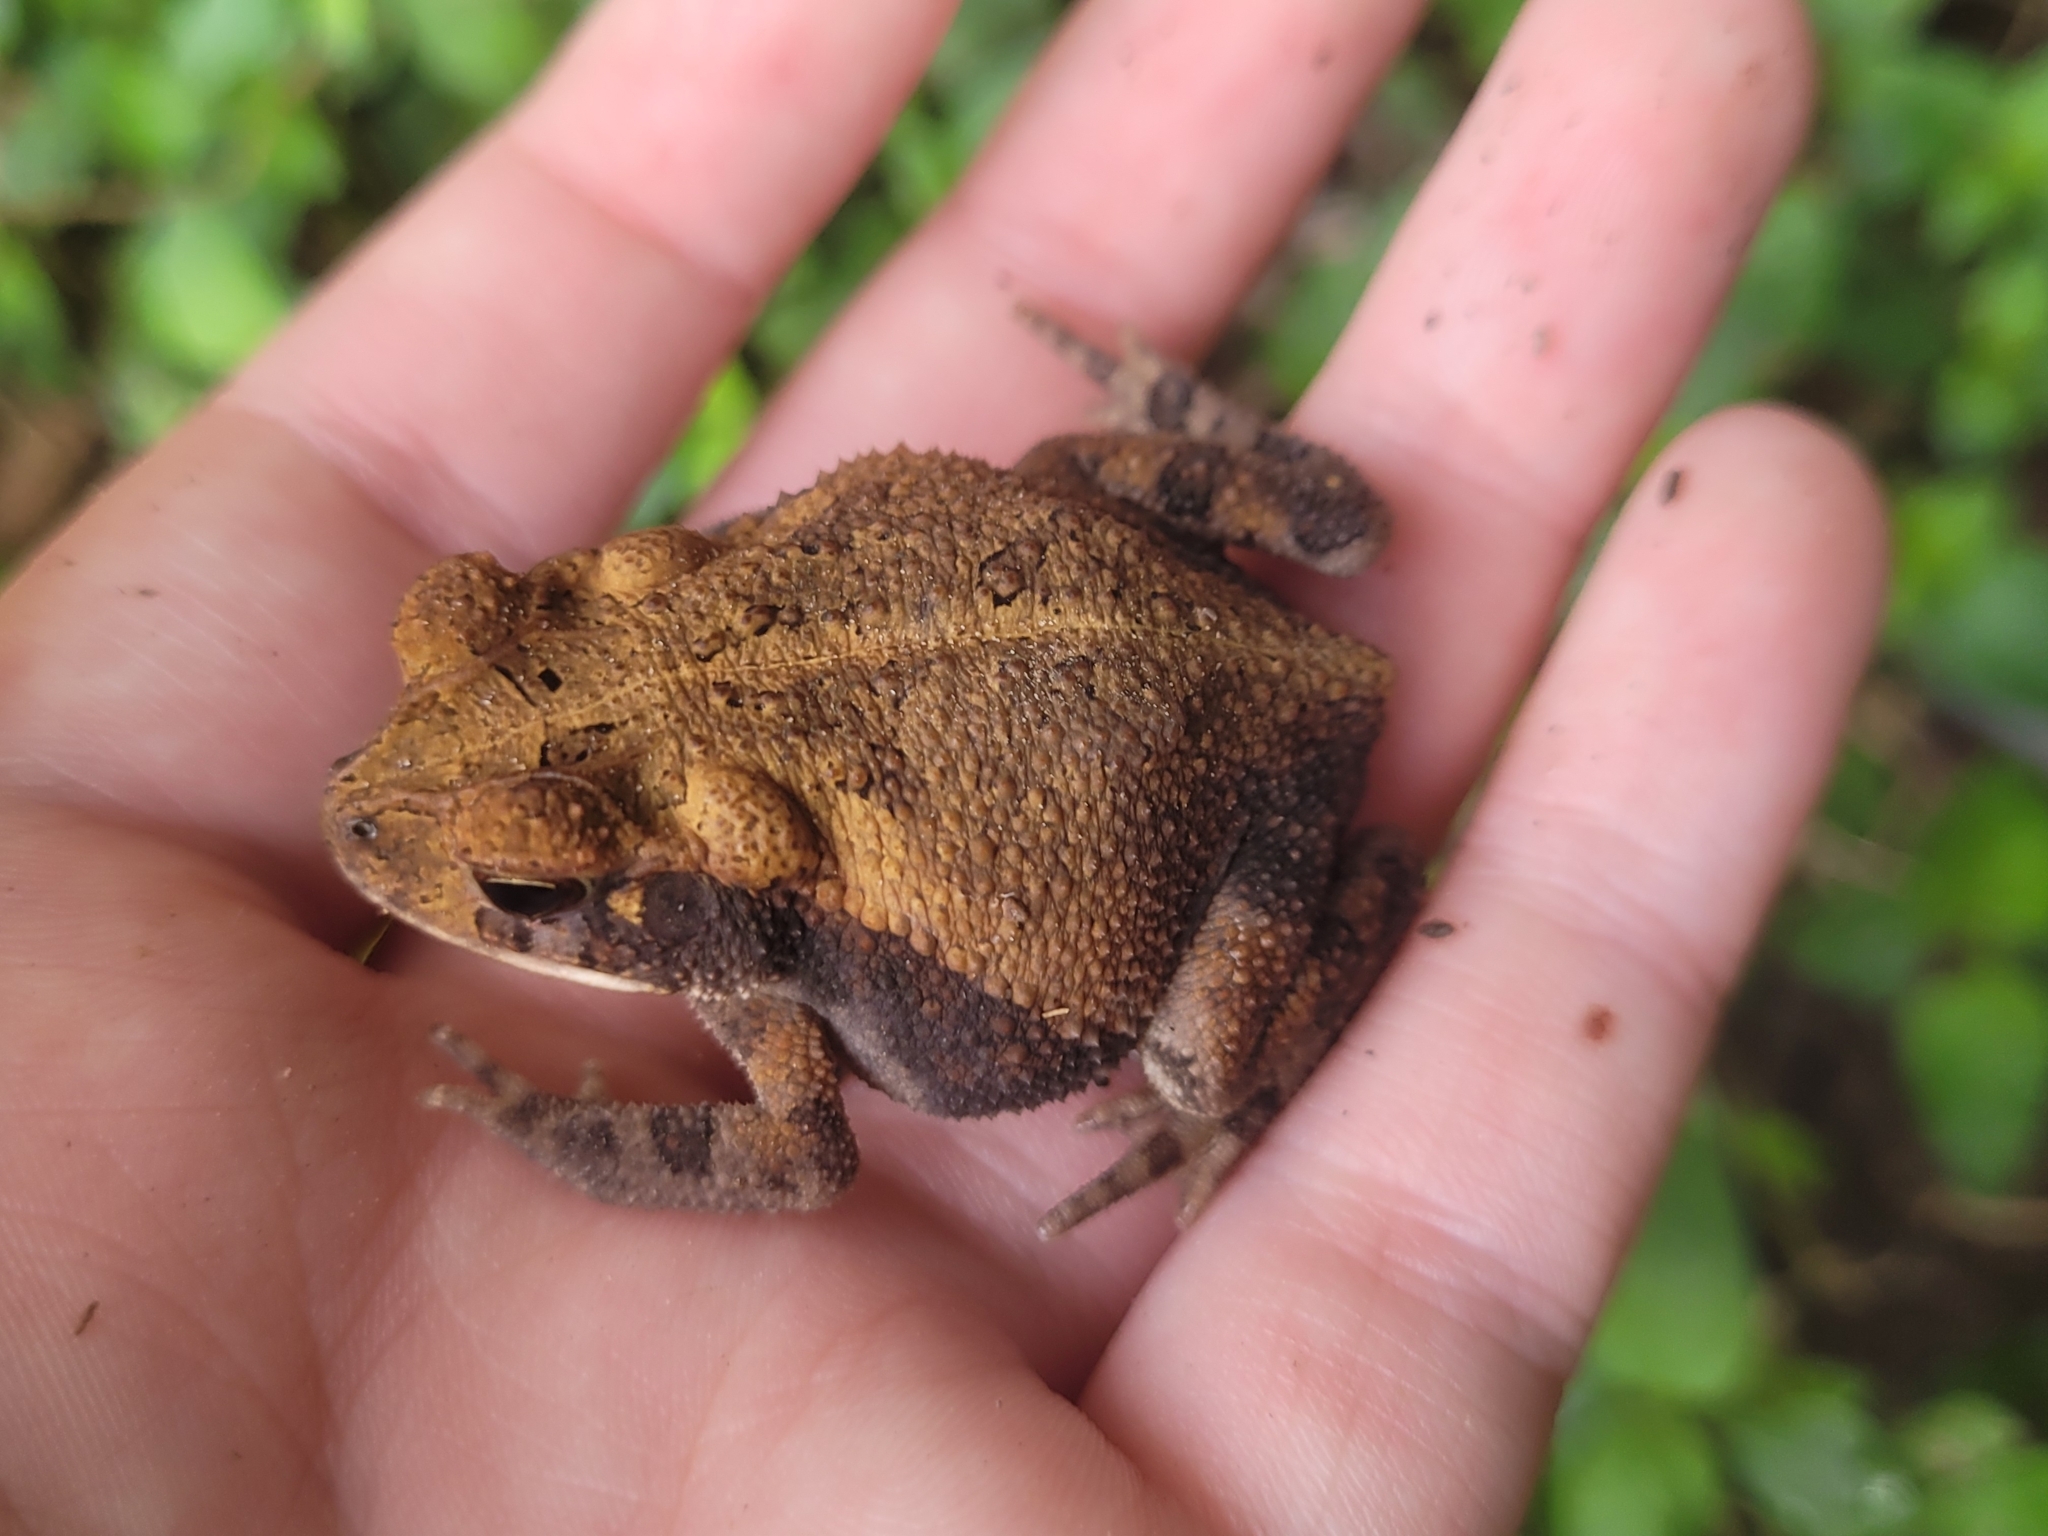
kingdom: Animalia
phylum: Chordata
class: Amphibia
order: Anura
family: Bufonidae
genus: Incilius
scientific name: Incilius nebulifer
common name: Gulf coast toad
